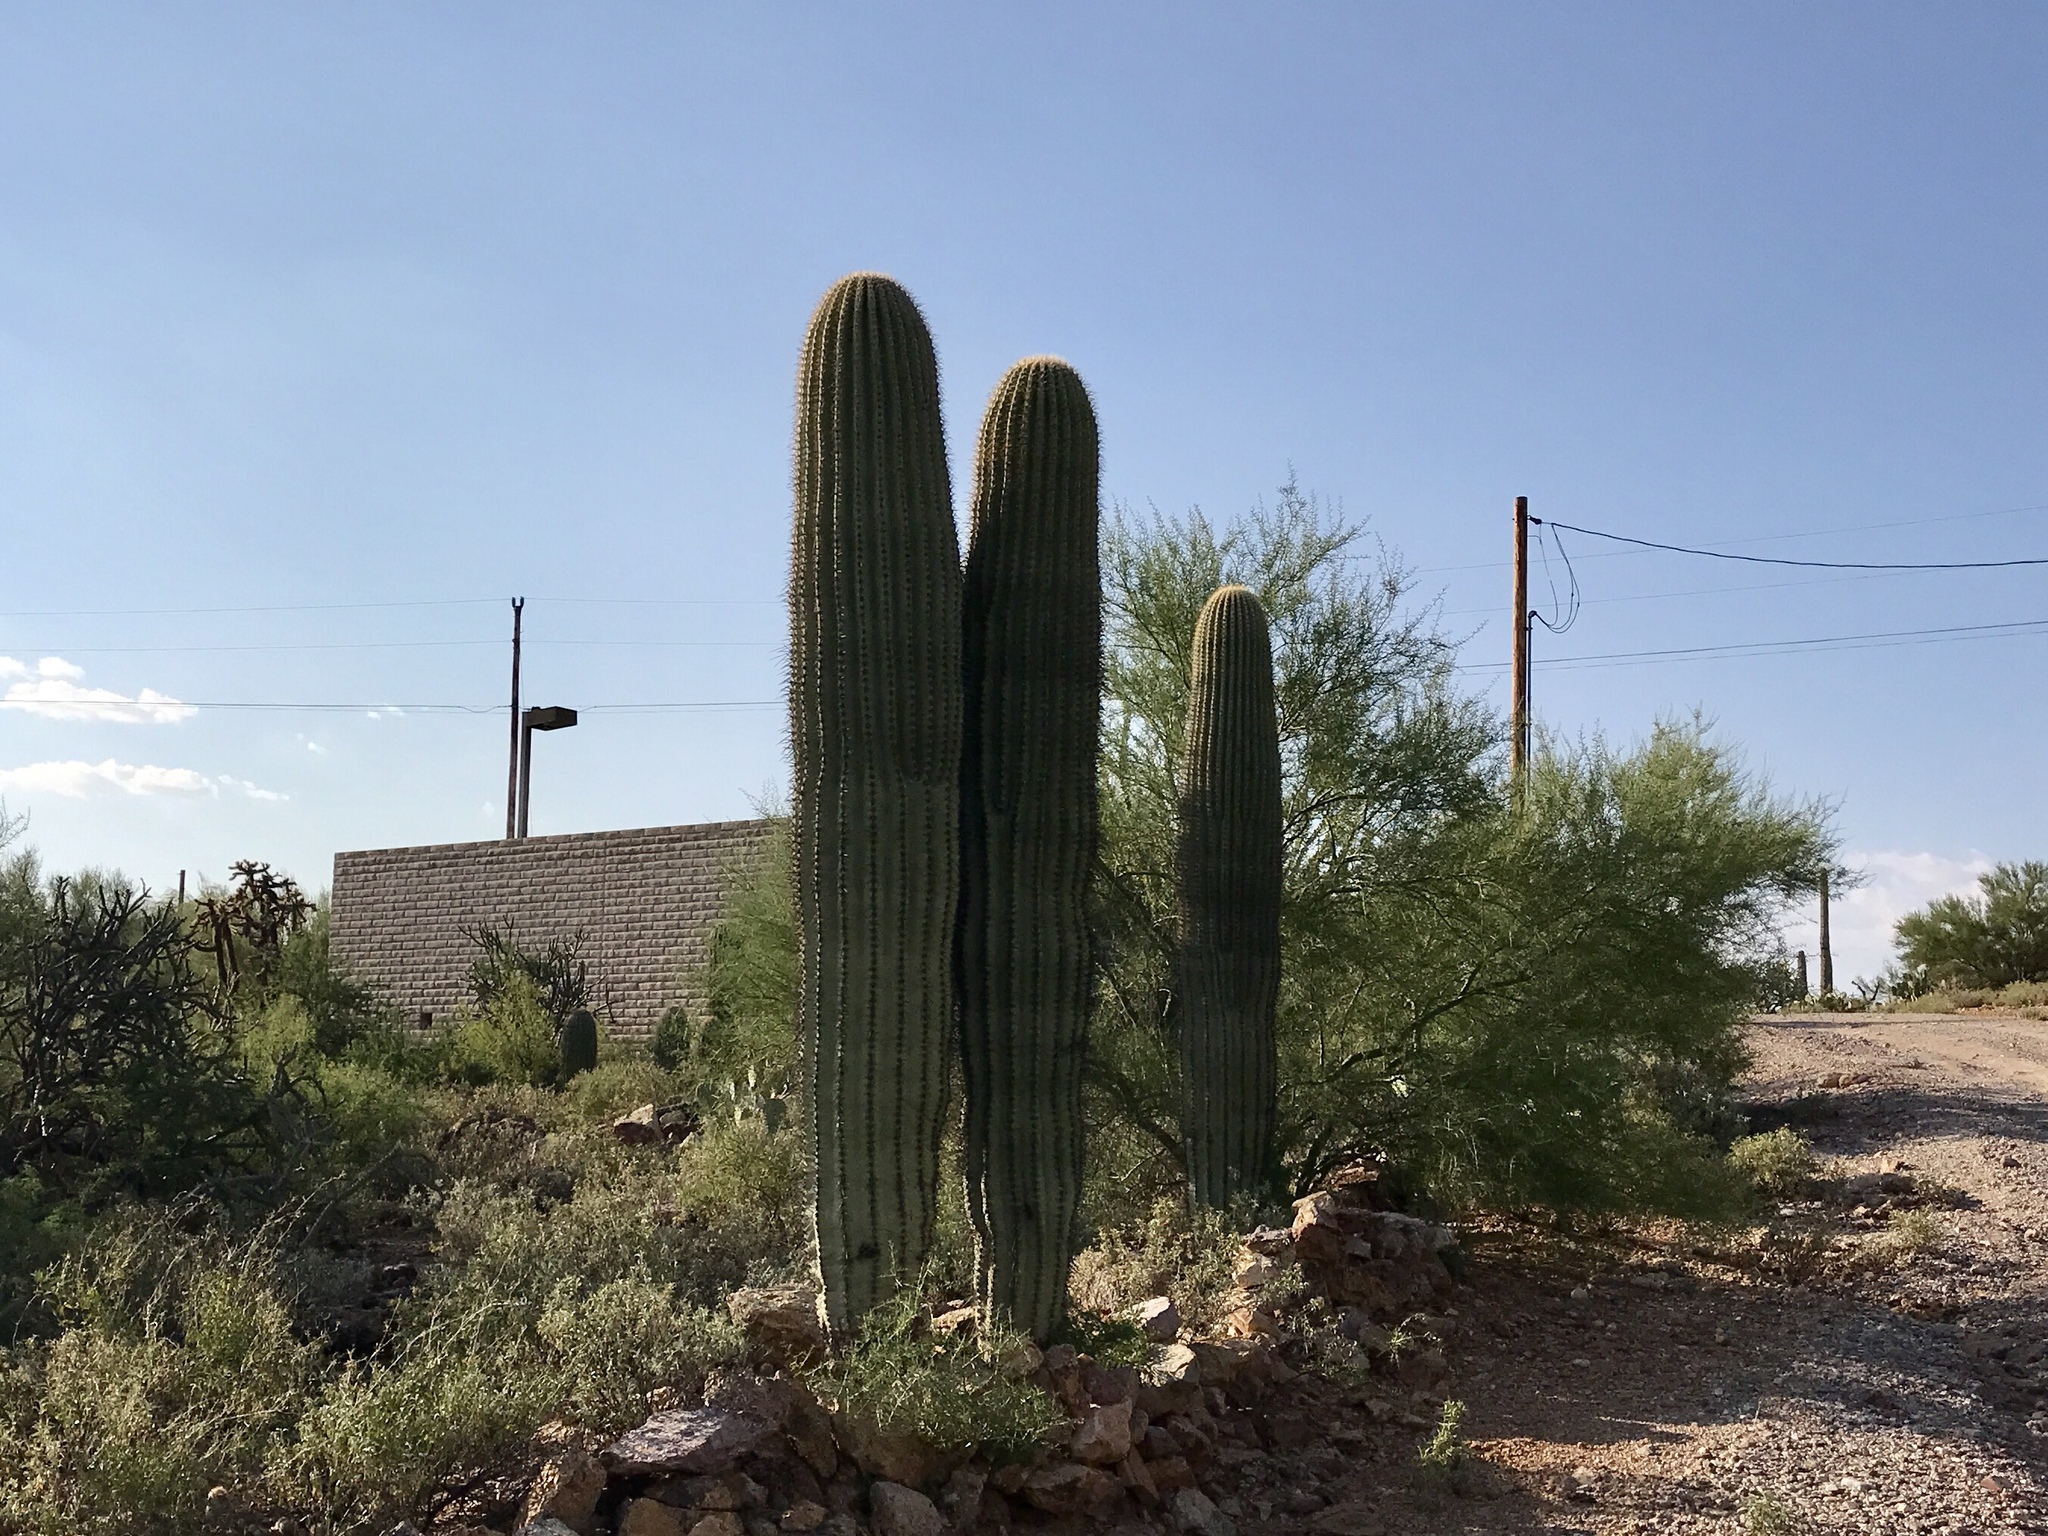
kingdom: Plantae
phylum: Tracheophyta
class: Magnoliopsida
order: Caryophyllales
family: Cactaceae
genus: Carnegiea
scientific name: Carnegiea gigantea
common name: Saguaro
